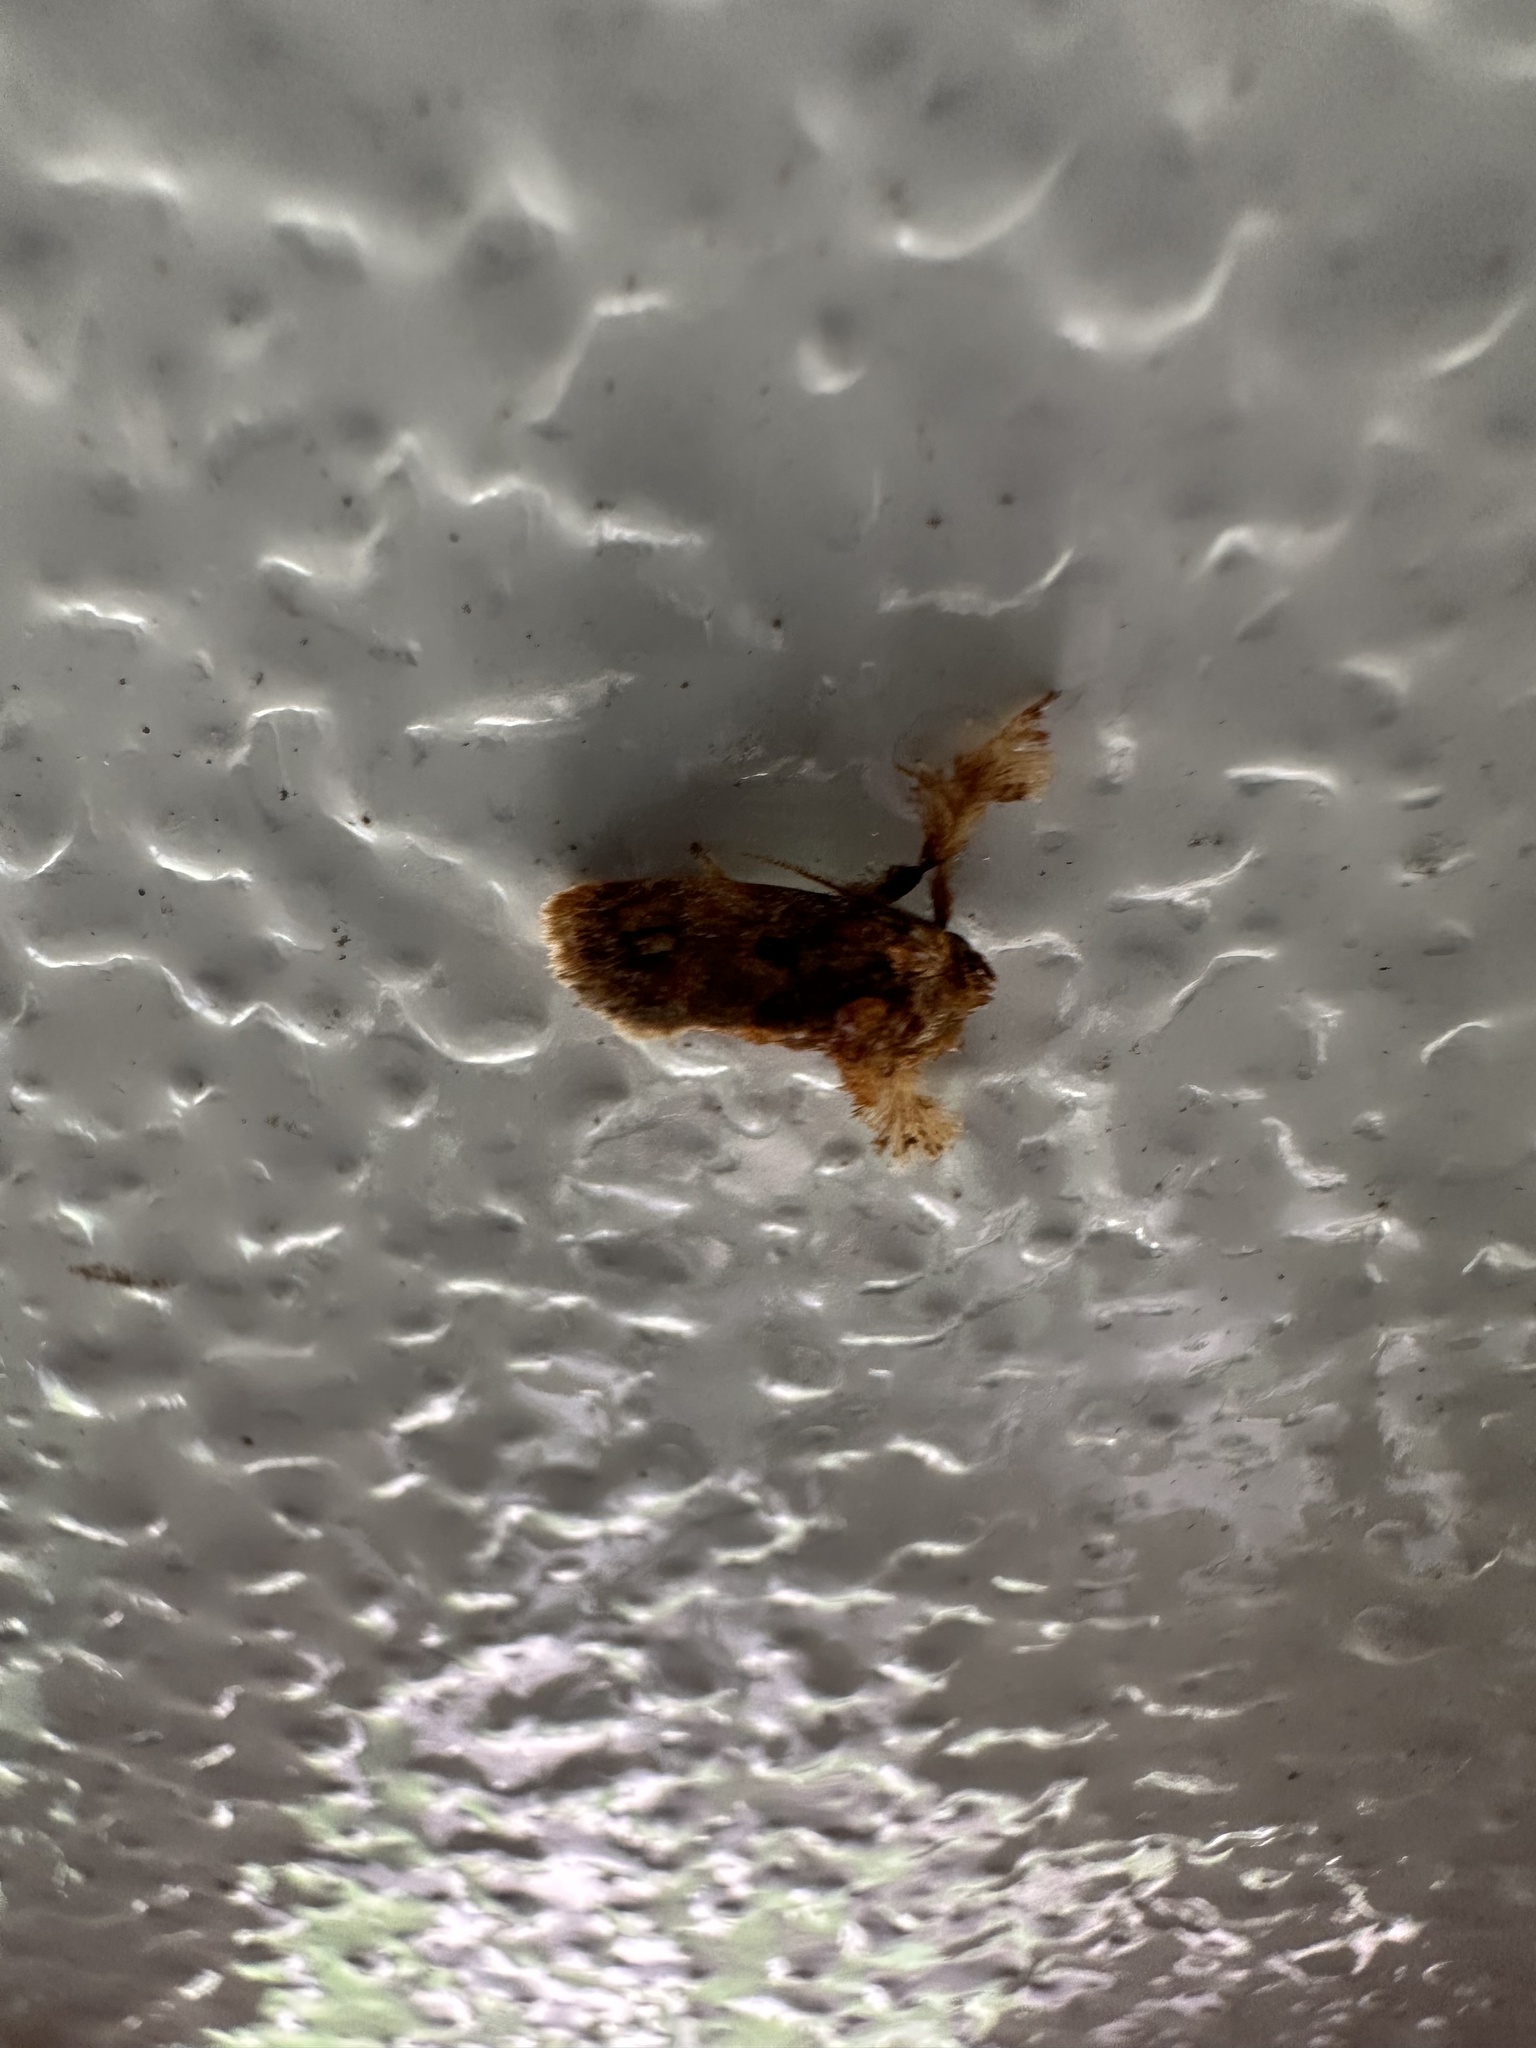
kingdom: Animalia
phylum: Arthropoda
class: Insecta
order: Lepidoptera
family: Limacodidae
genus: Isochaetes
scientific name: Isochaetes beutenmuelleri
